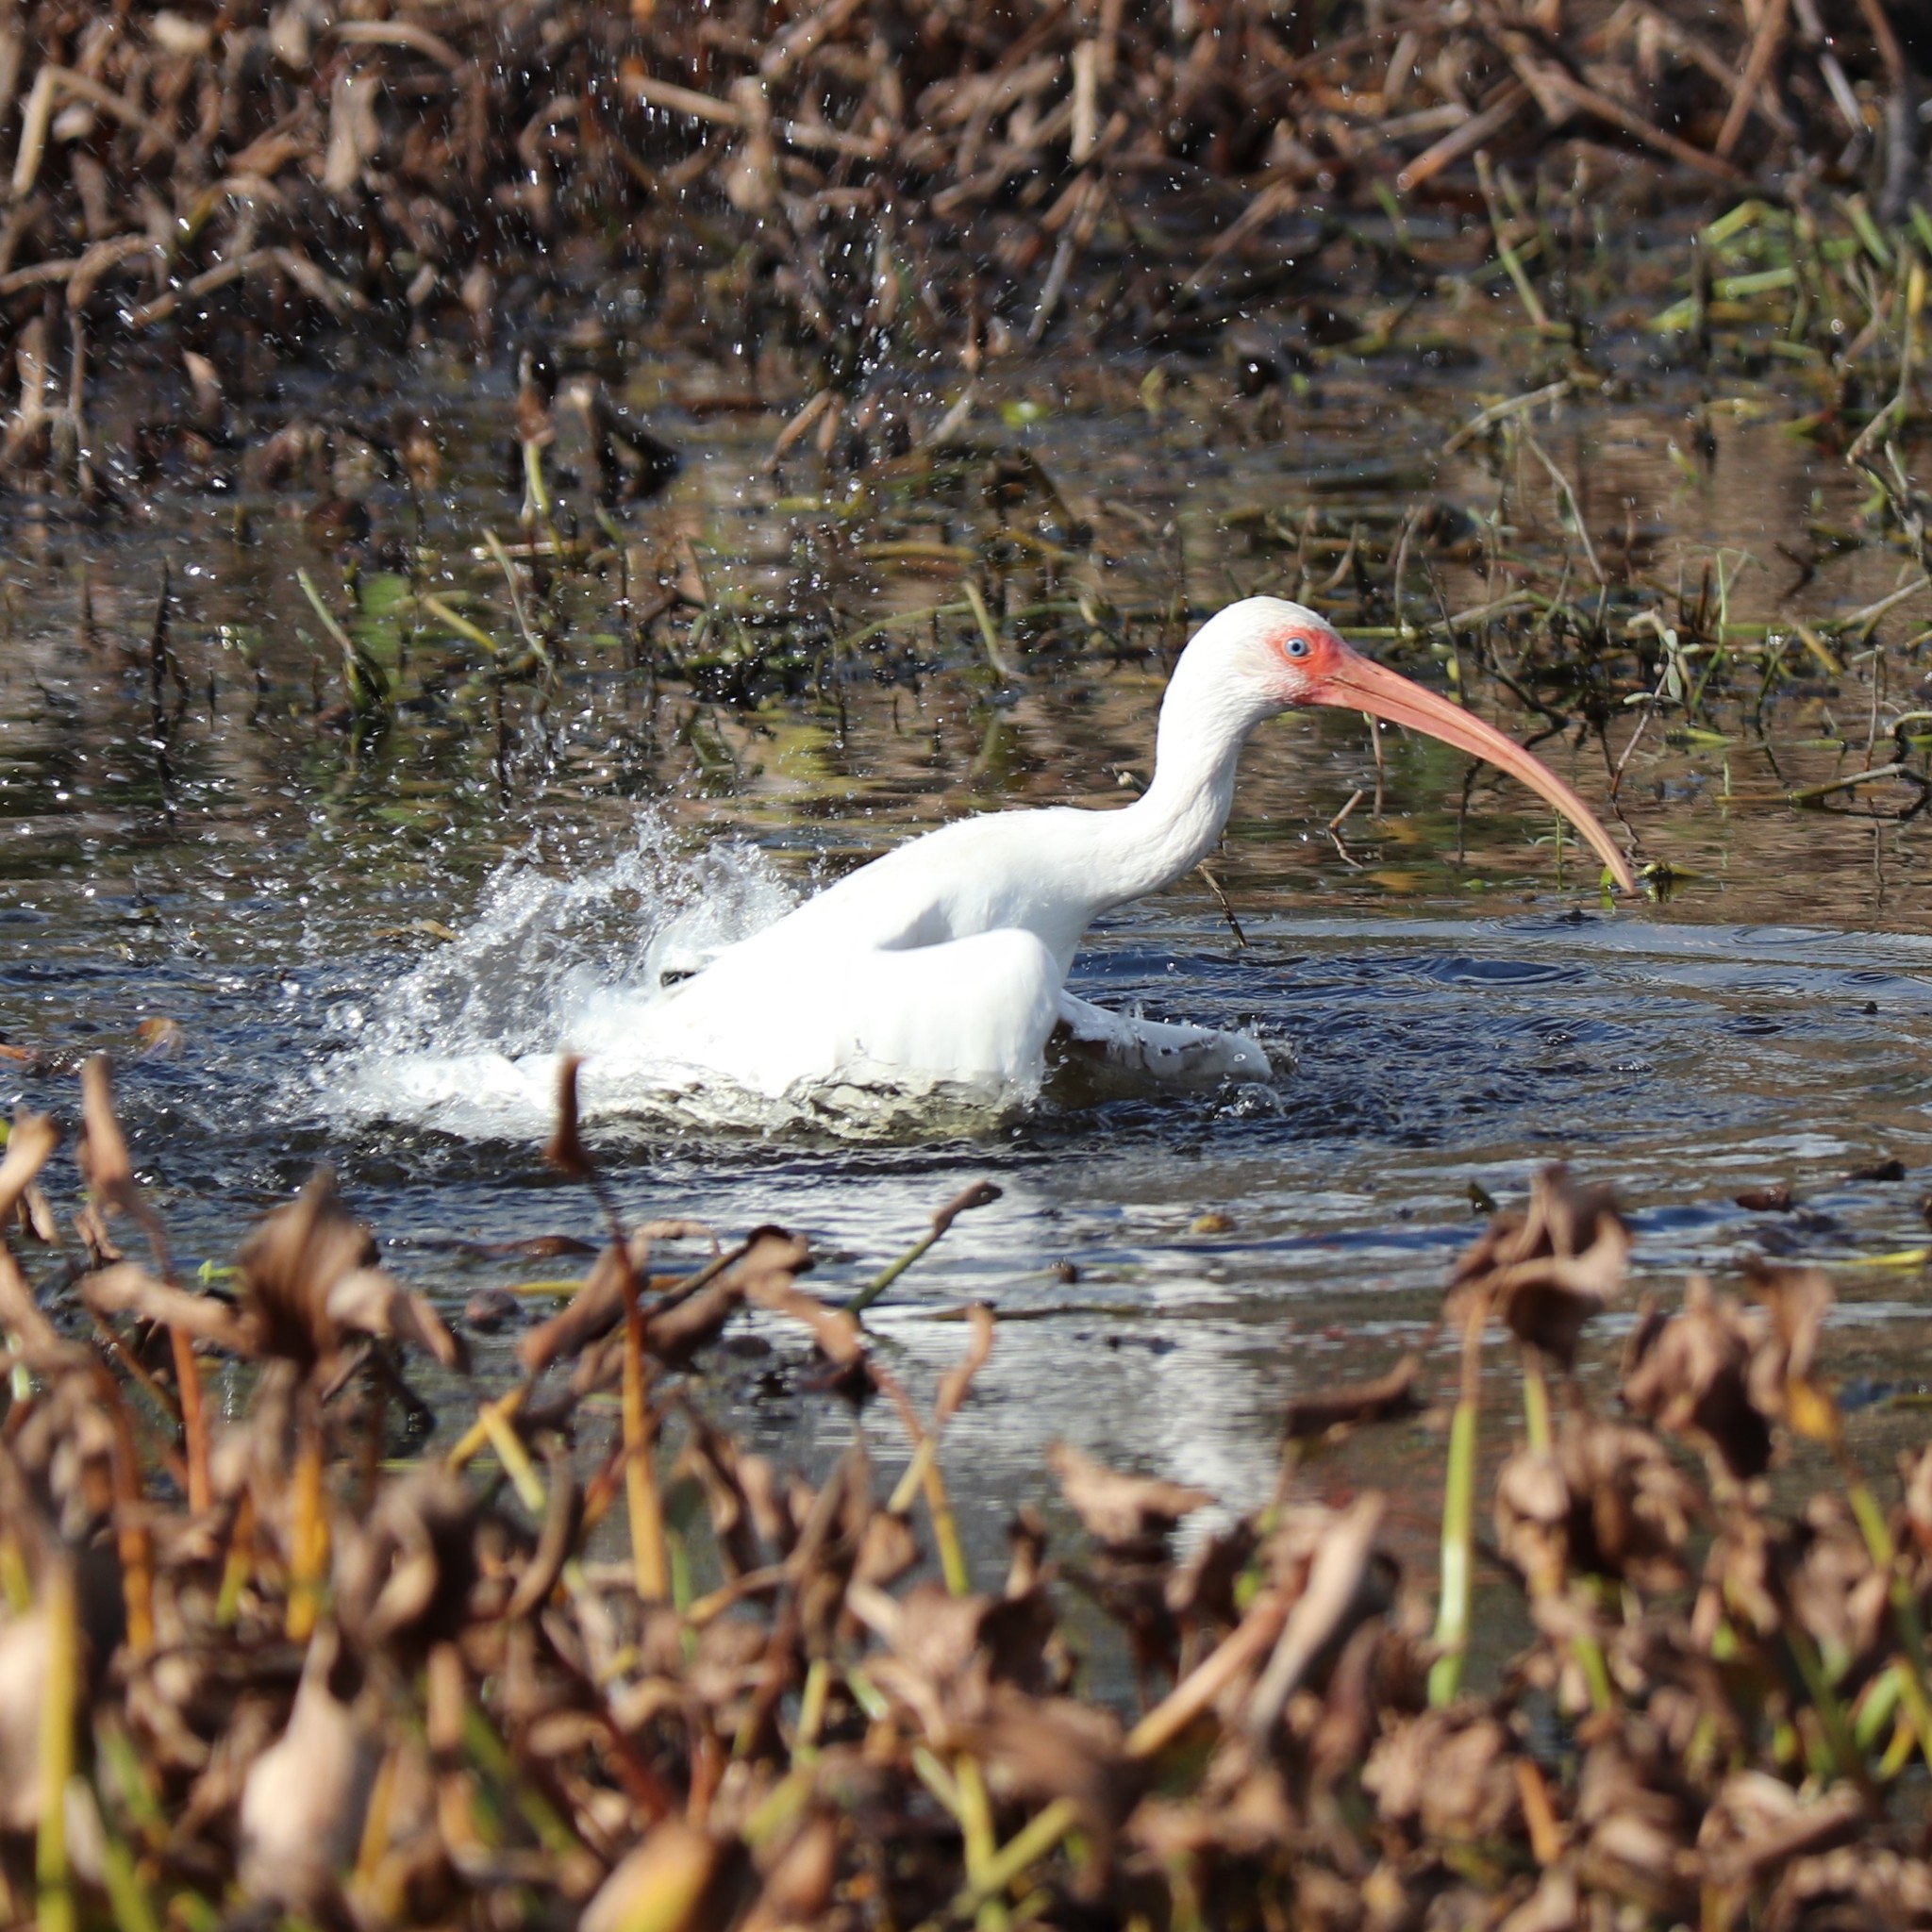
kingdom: Animalia
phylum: Chordata
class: Aves
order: Pelecaniformes
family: Threskiornithidae
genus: Eudocimus
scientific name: Eudocimus albus
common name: White ibis
